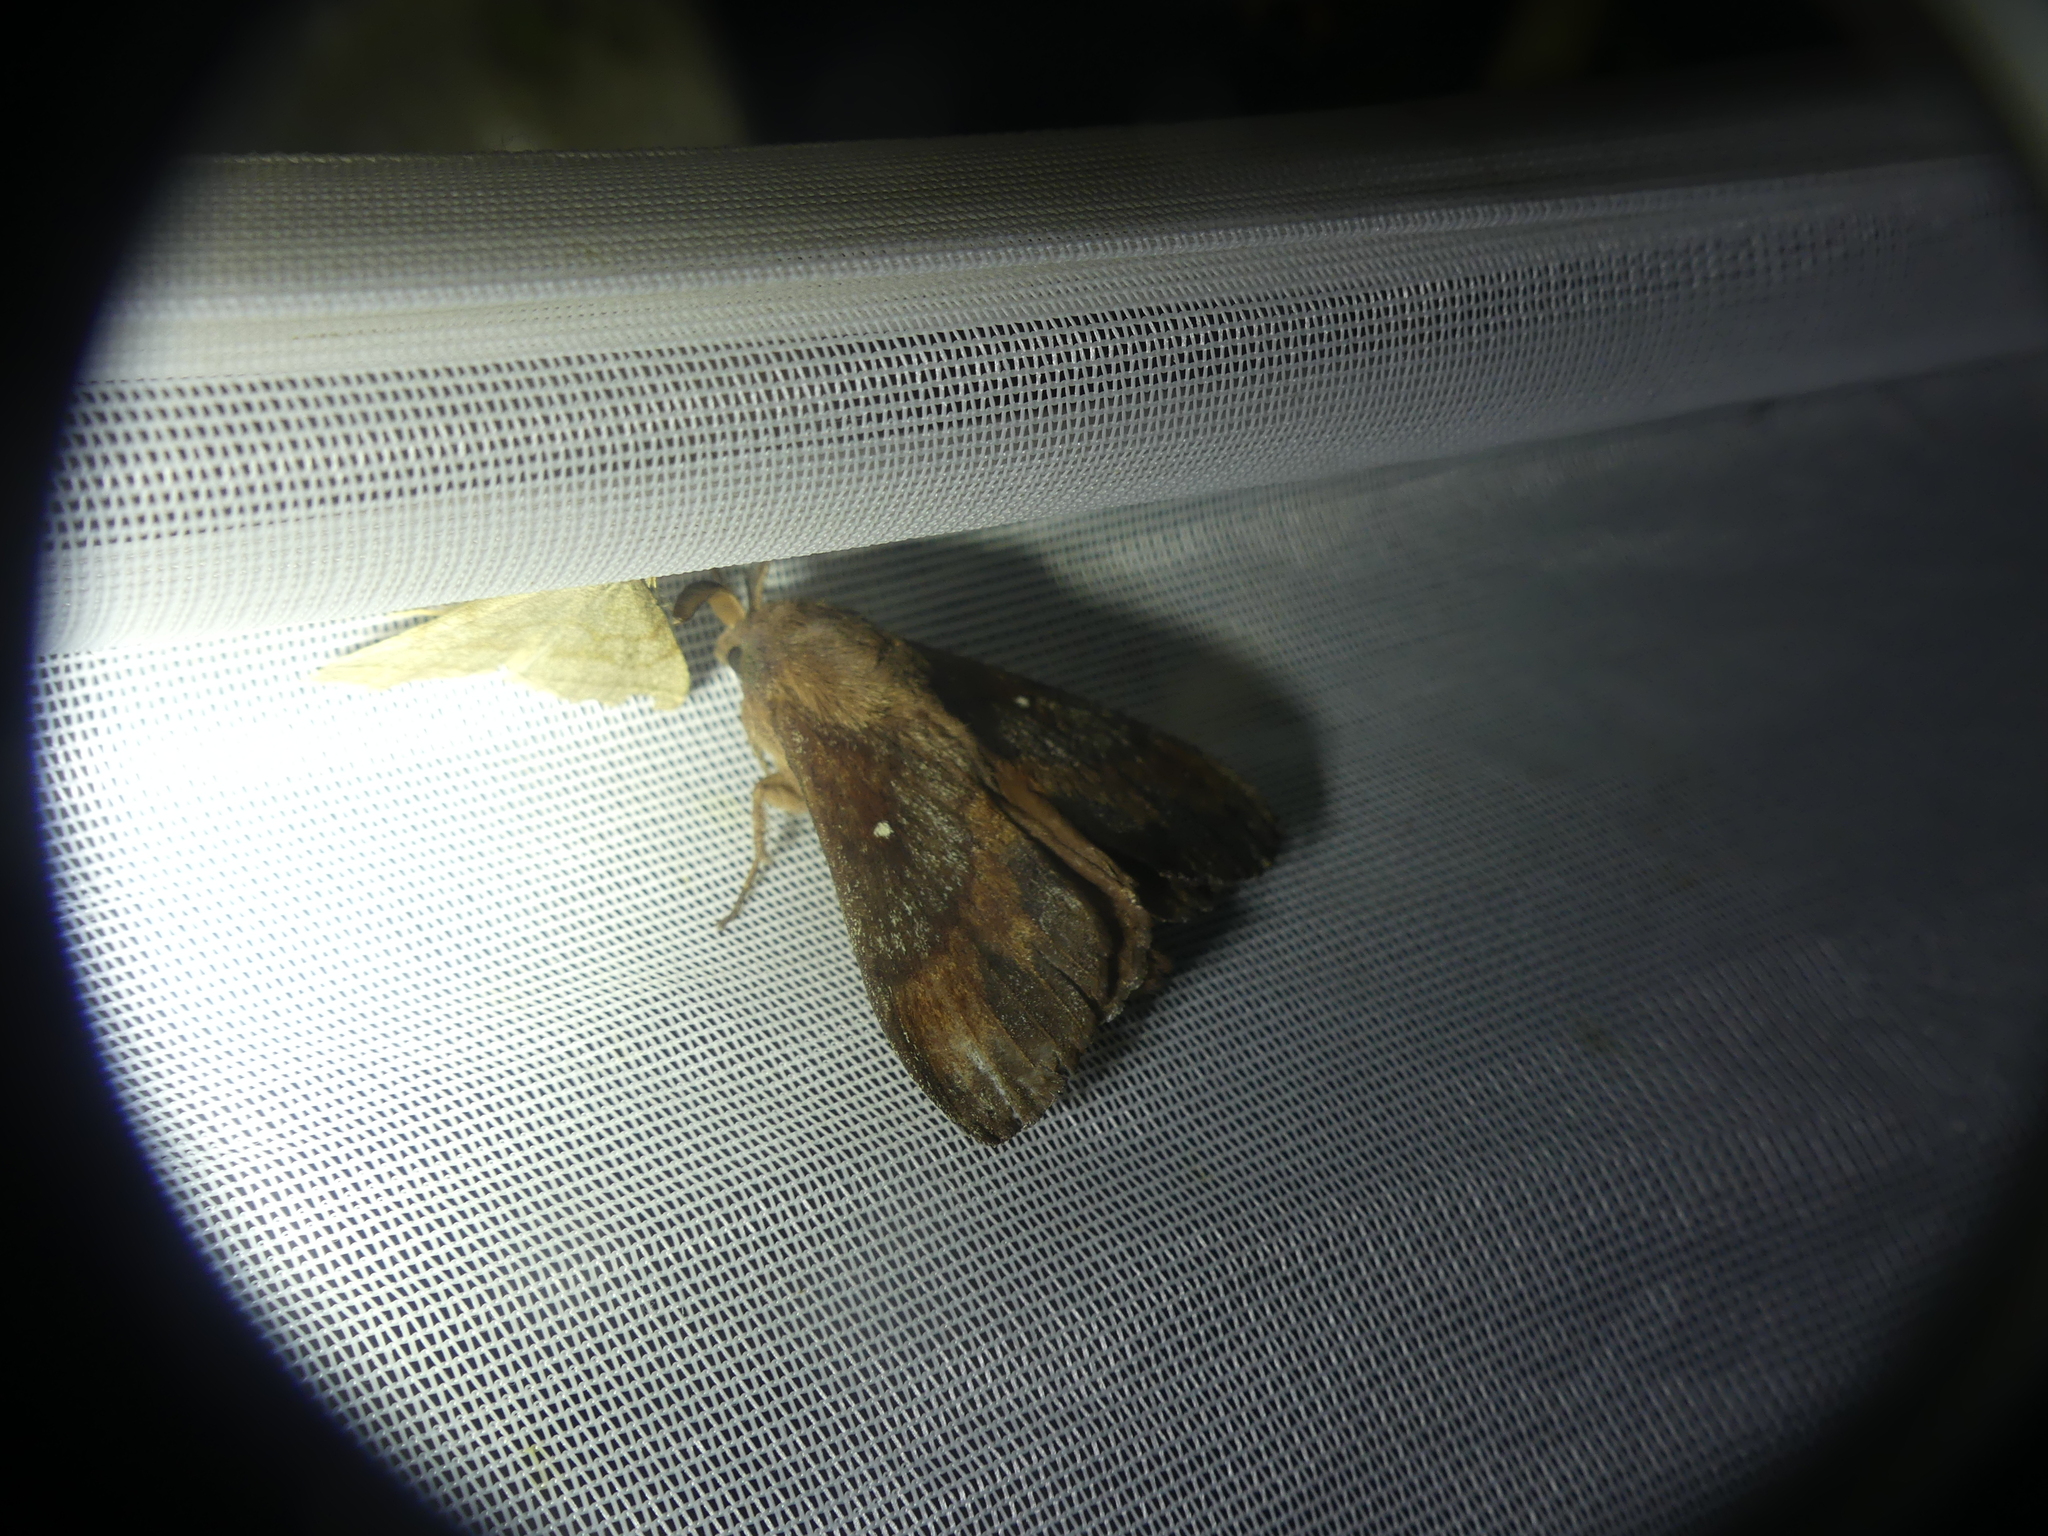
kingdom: Animalia
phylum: Arthropoda
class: Insecta
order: Lepidoptera
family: Lasiocampidae
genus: Dendrolimus
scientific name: Dendrolimus pini
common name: Pine-tree lappet
